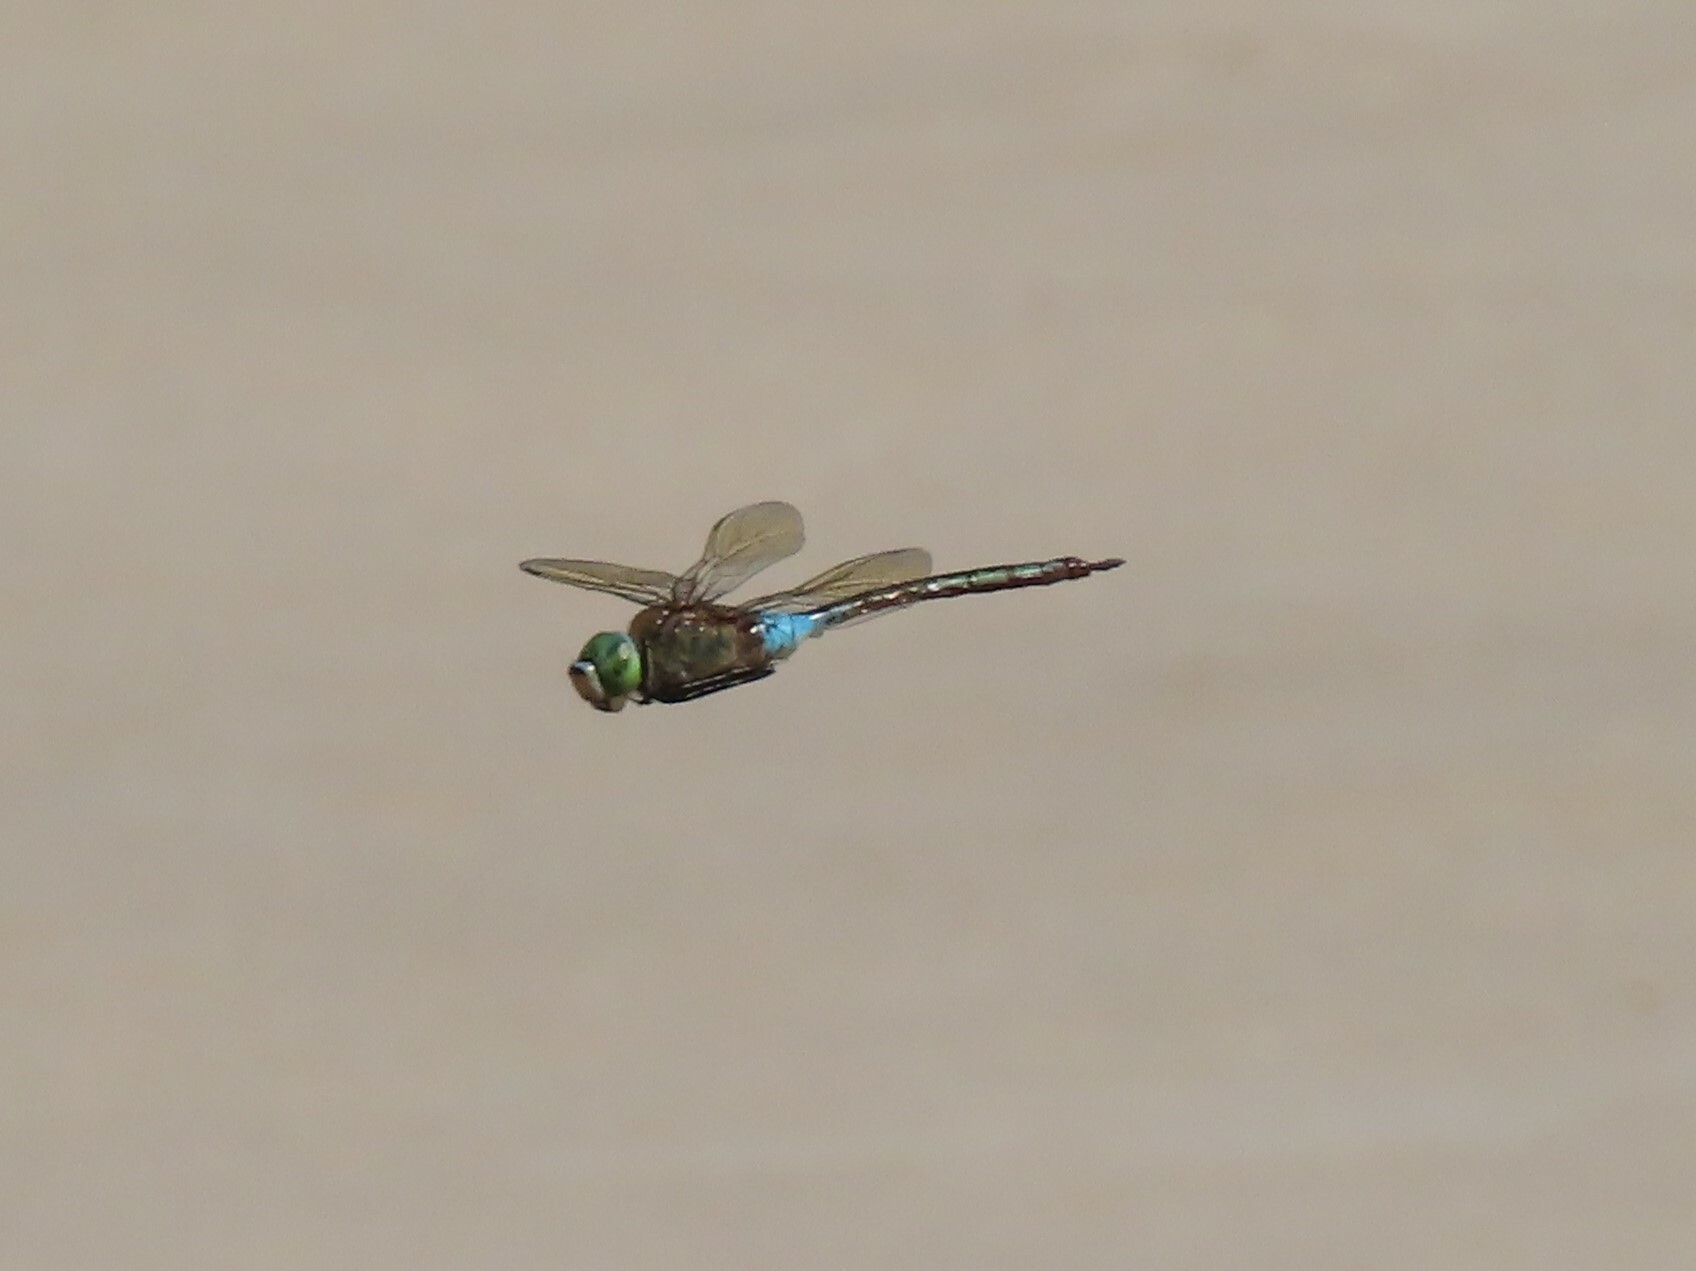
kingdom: Animalia
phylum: Arthropoda
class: Insecta
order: Odonata
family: Aeshnidae
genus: Anax
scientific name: Anax parthenope
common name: Lesser emperor
